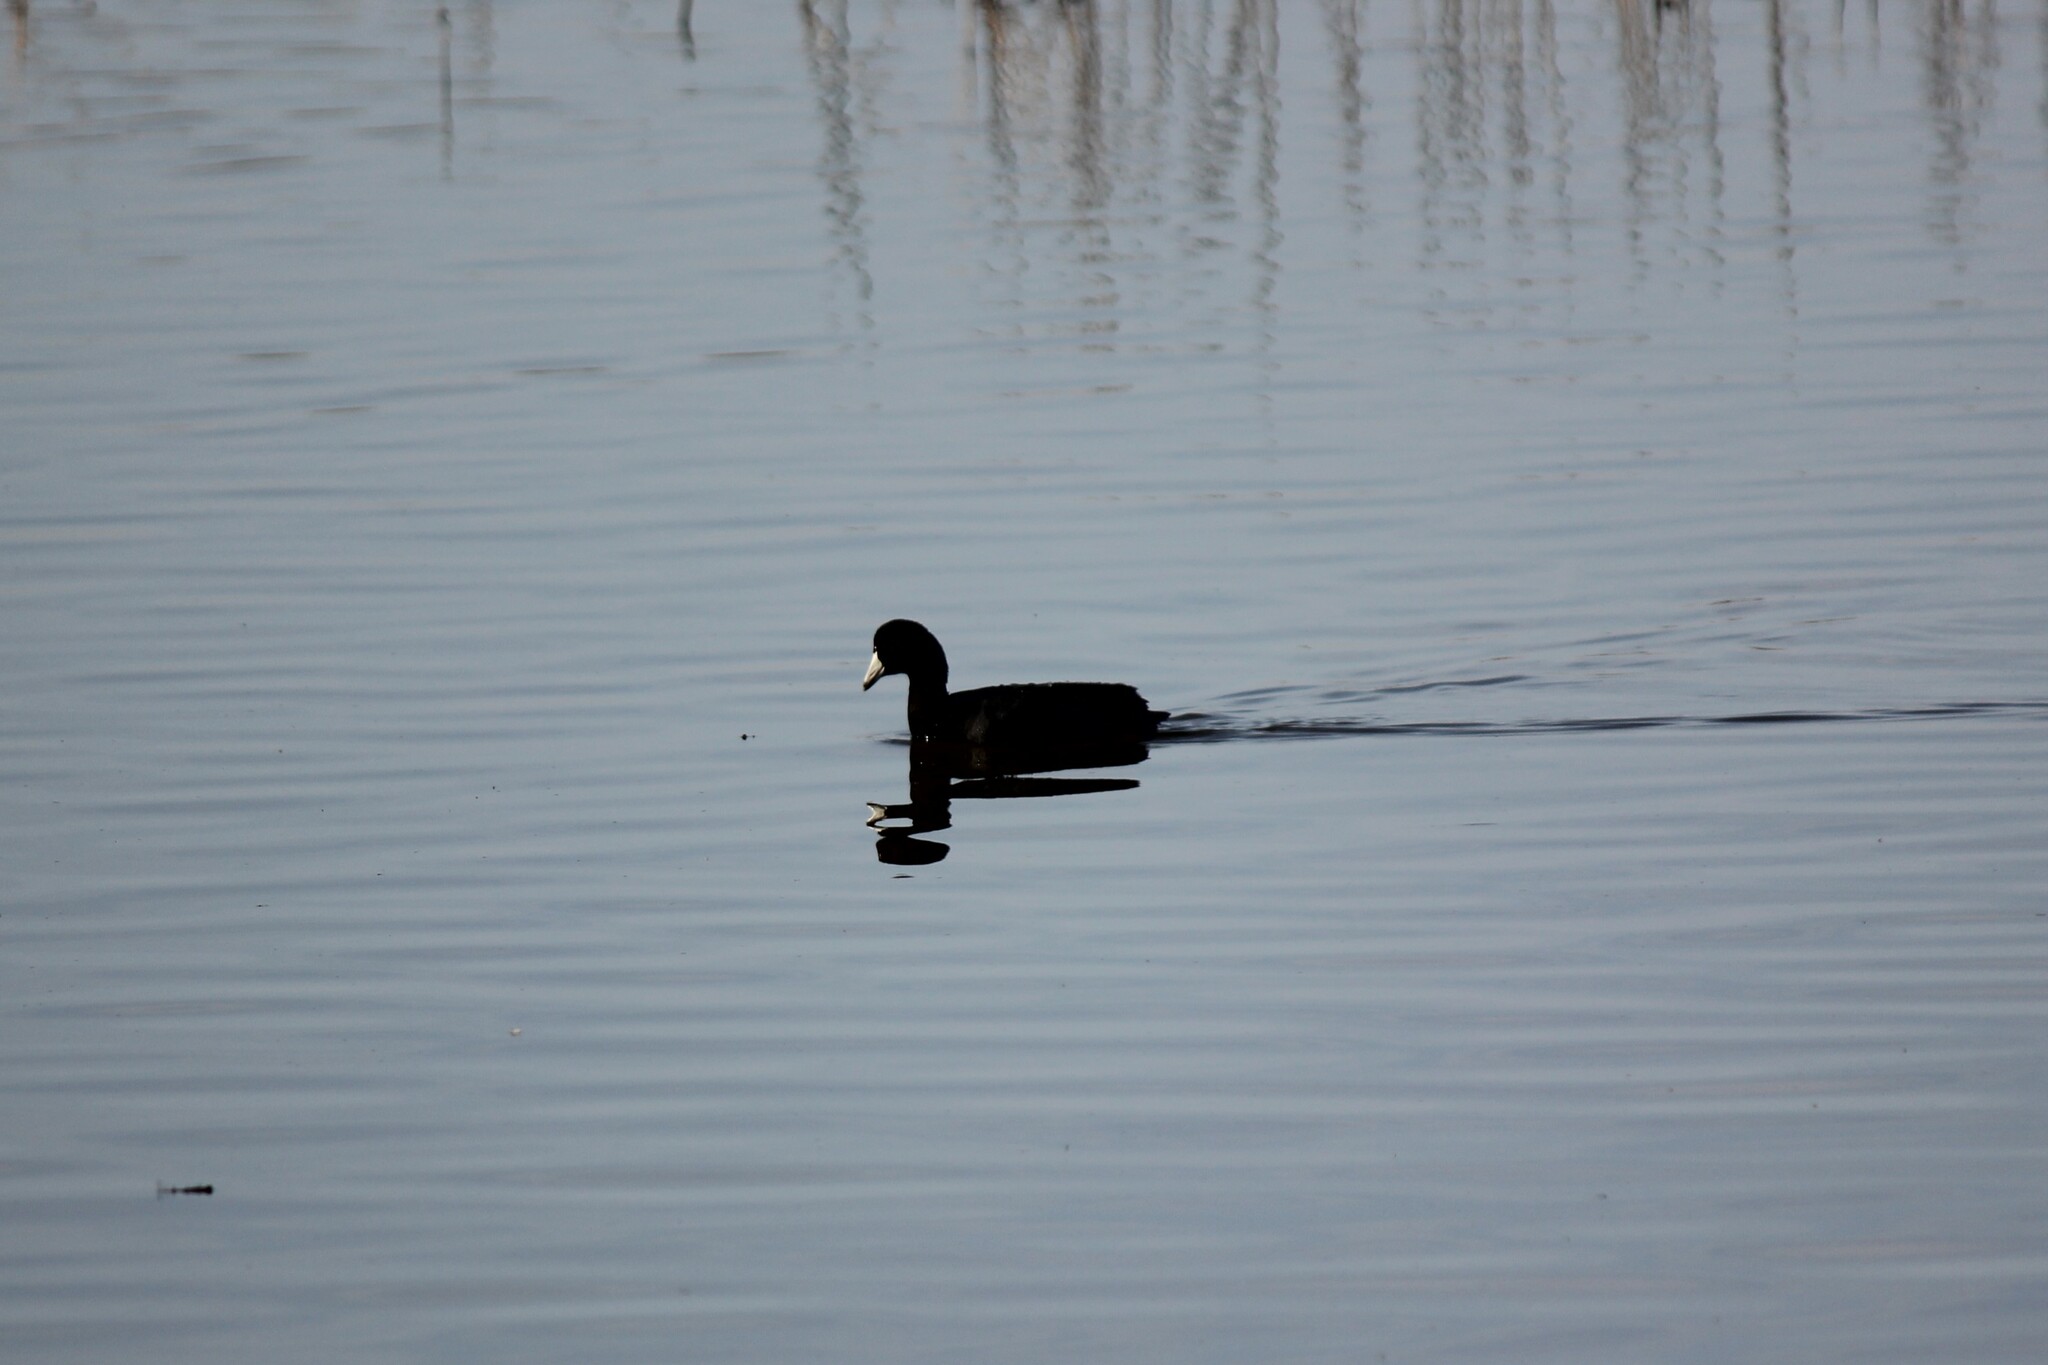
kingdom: Animalia
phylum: Chordata
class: Aves
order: Gruiformes
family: Rallidae
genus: Fulica
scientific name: Fulica americana
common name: American coot
